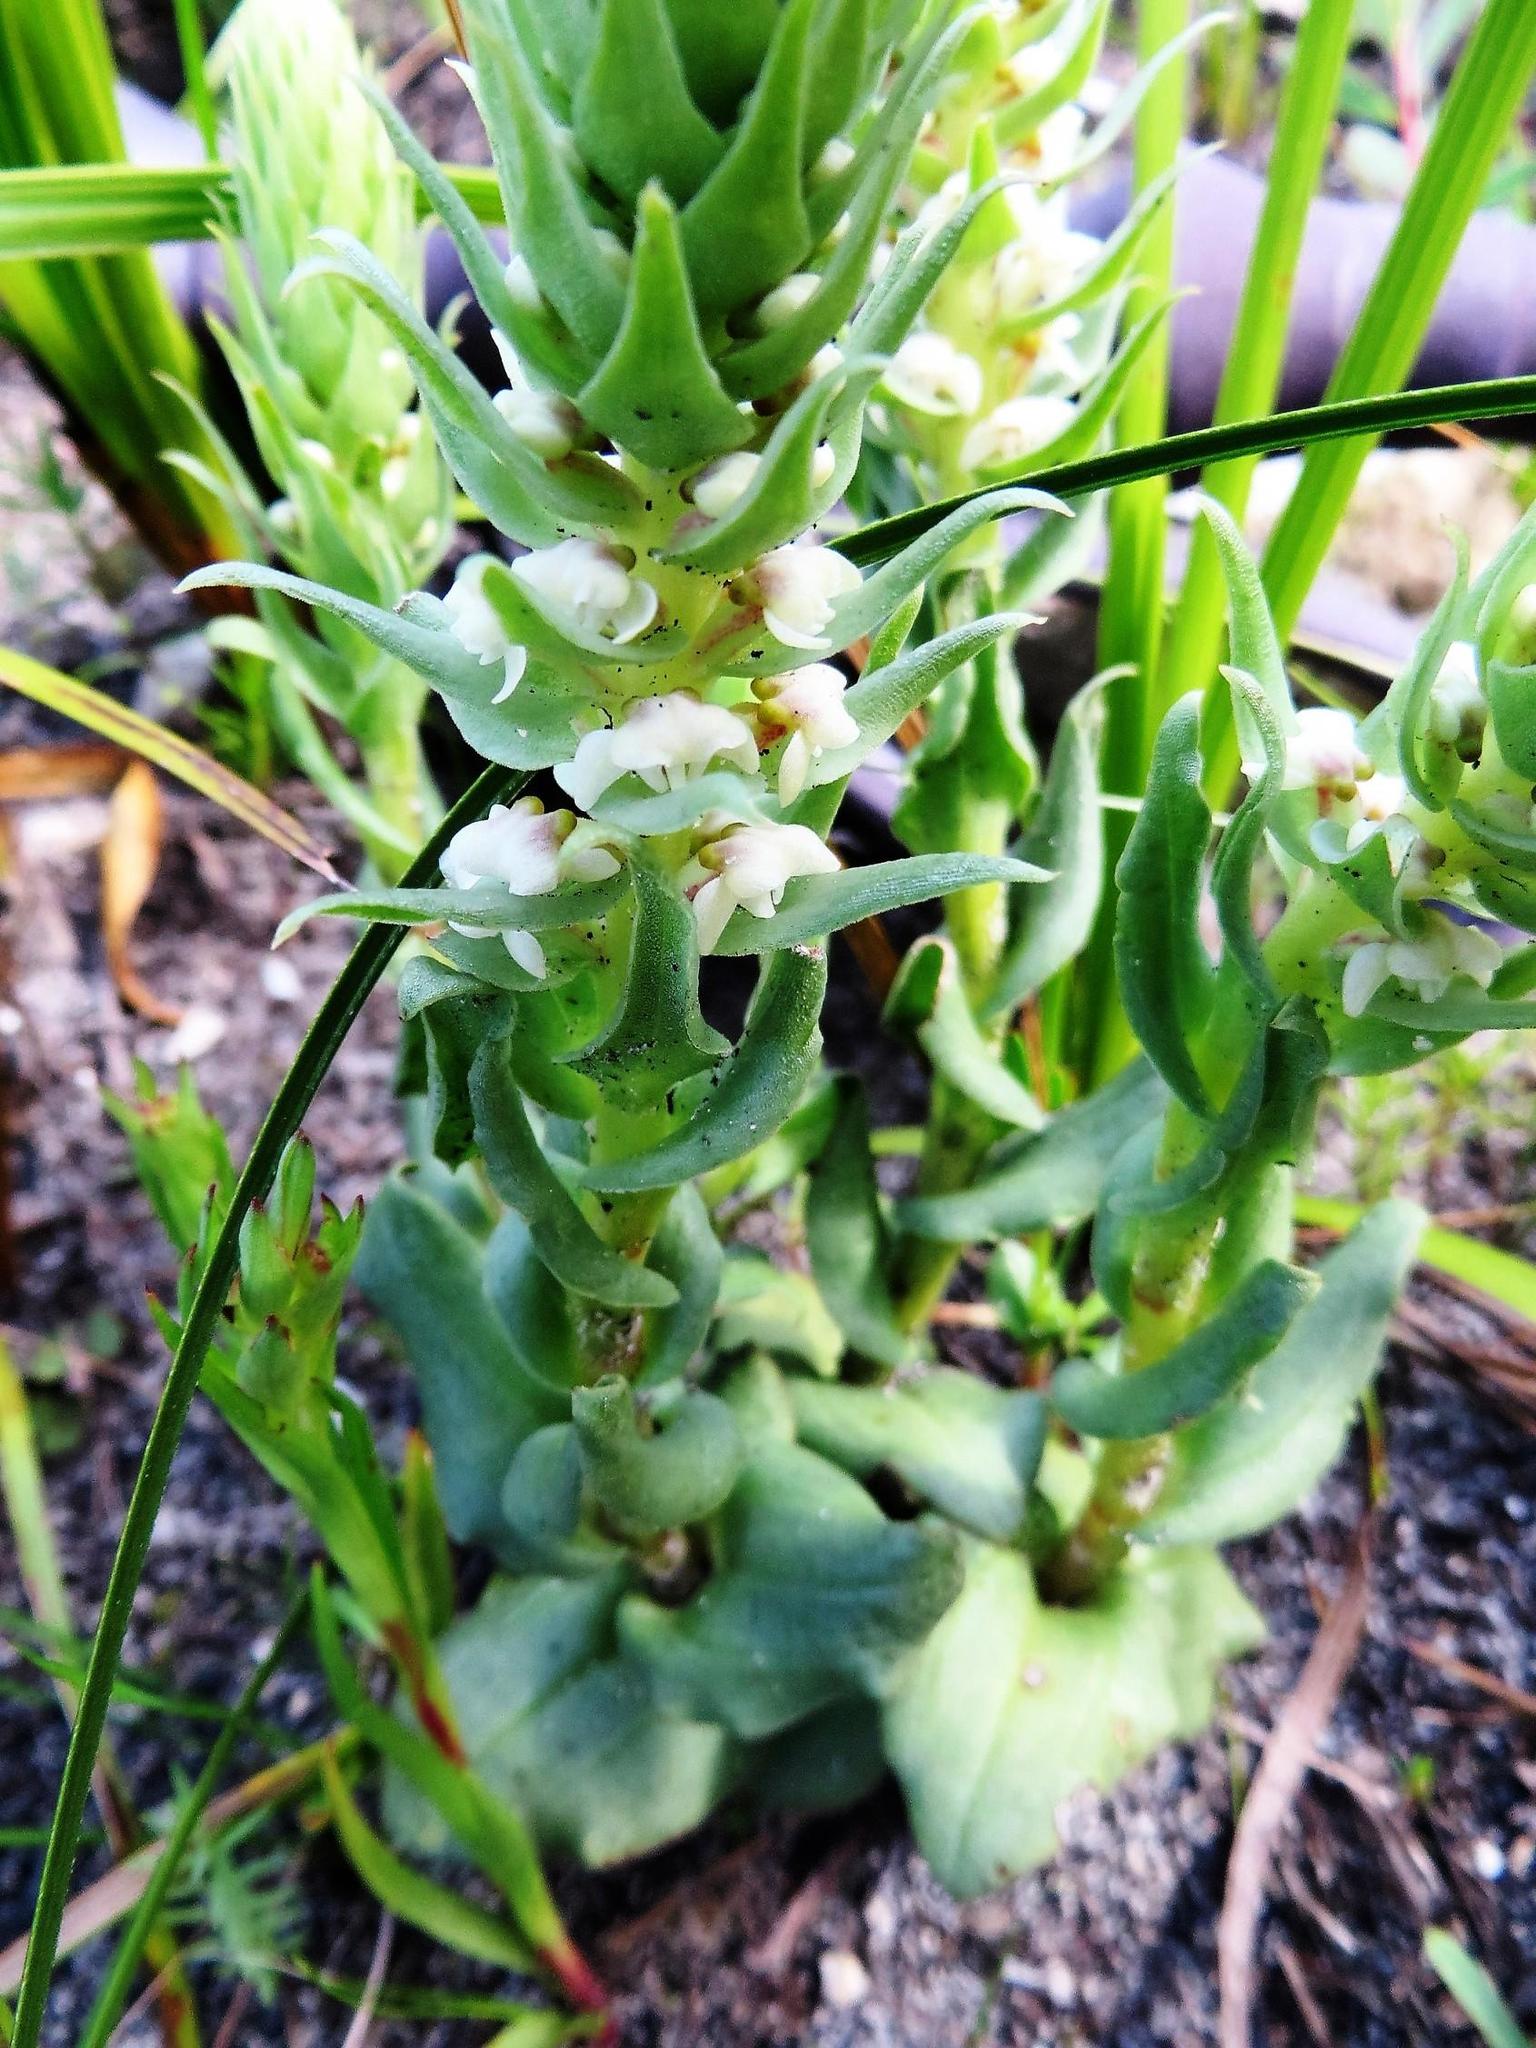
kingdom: Plantae
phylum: Tracheophyta
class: Liliopsida
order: Asparagales
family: Orchidaceae
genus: Satyrium
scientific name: Satyrium bicallosum
